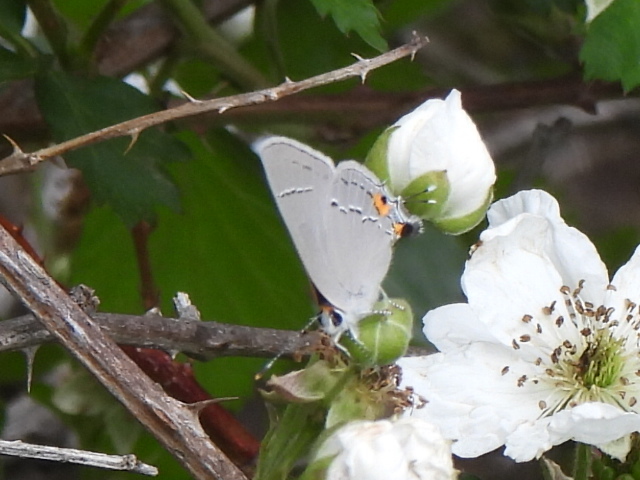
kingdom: Animalia
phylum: Arthropoda
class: Insecta
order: Lepidoptera
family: Lycaenidae
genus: Strymon
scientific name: Strymon melinus
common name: Gray hairstreak
